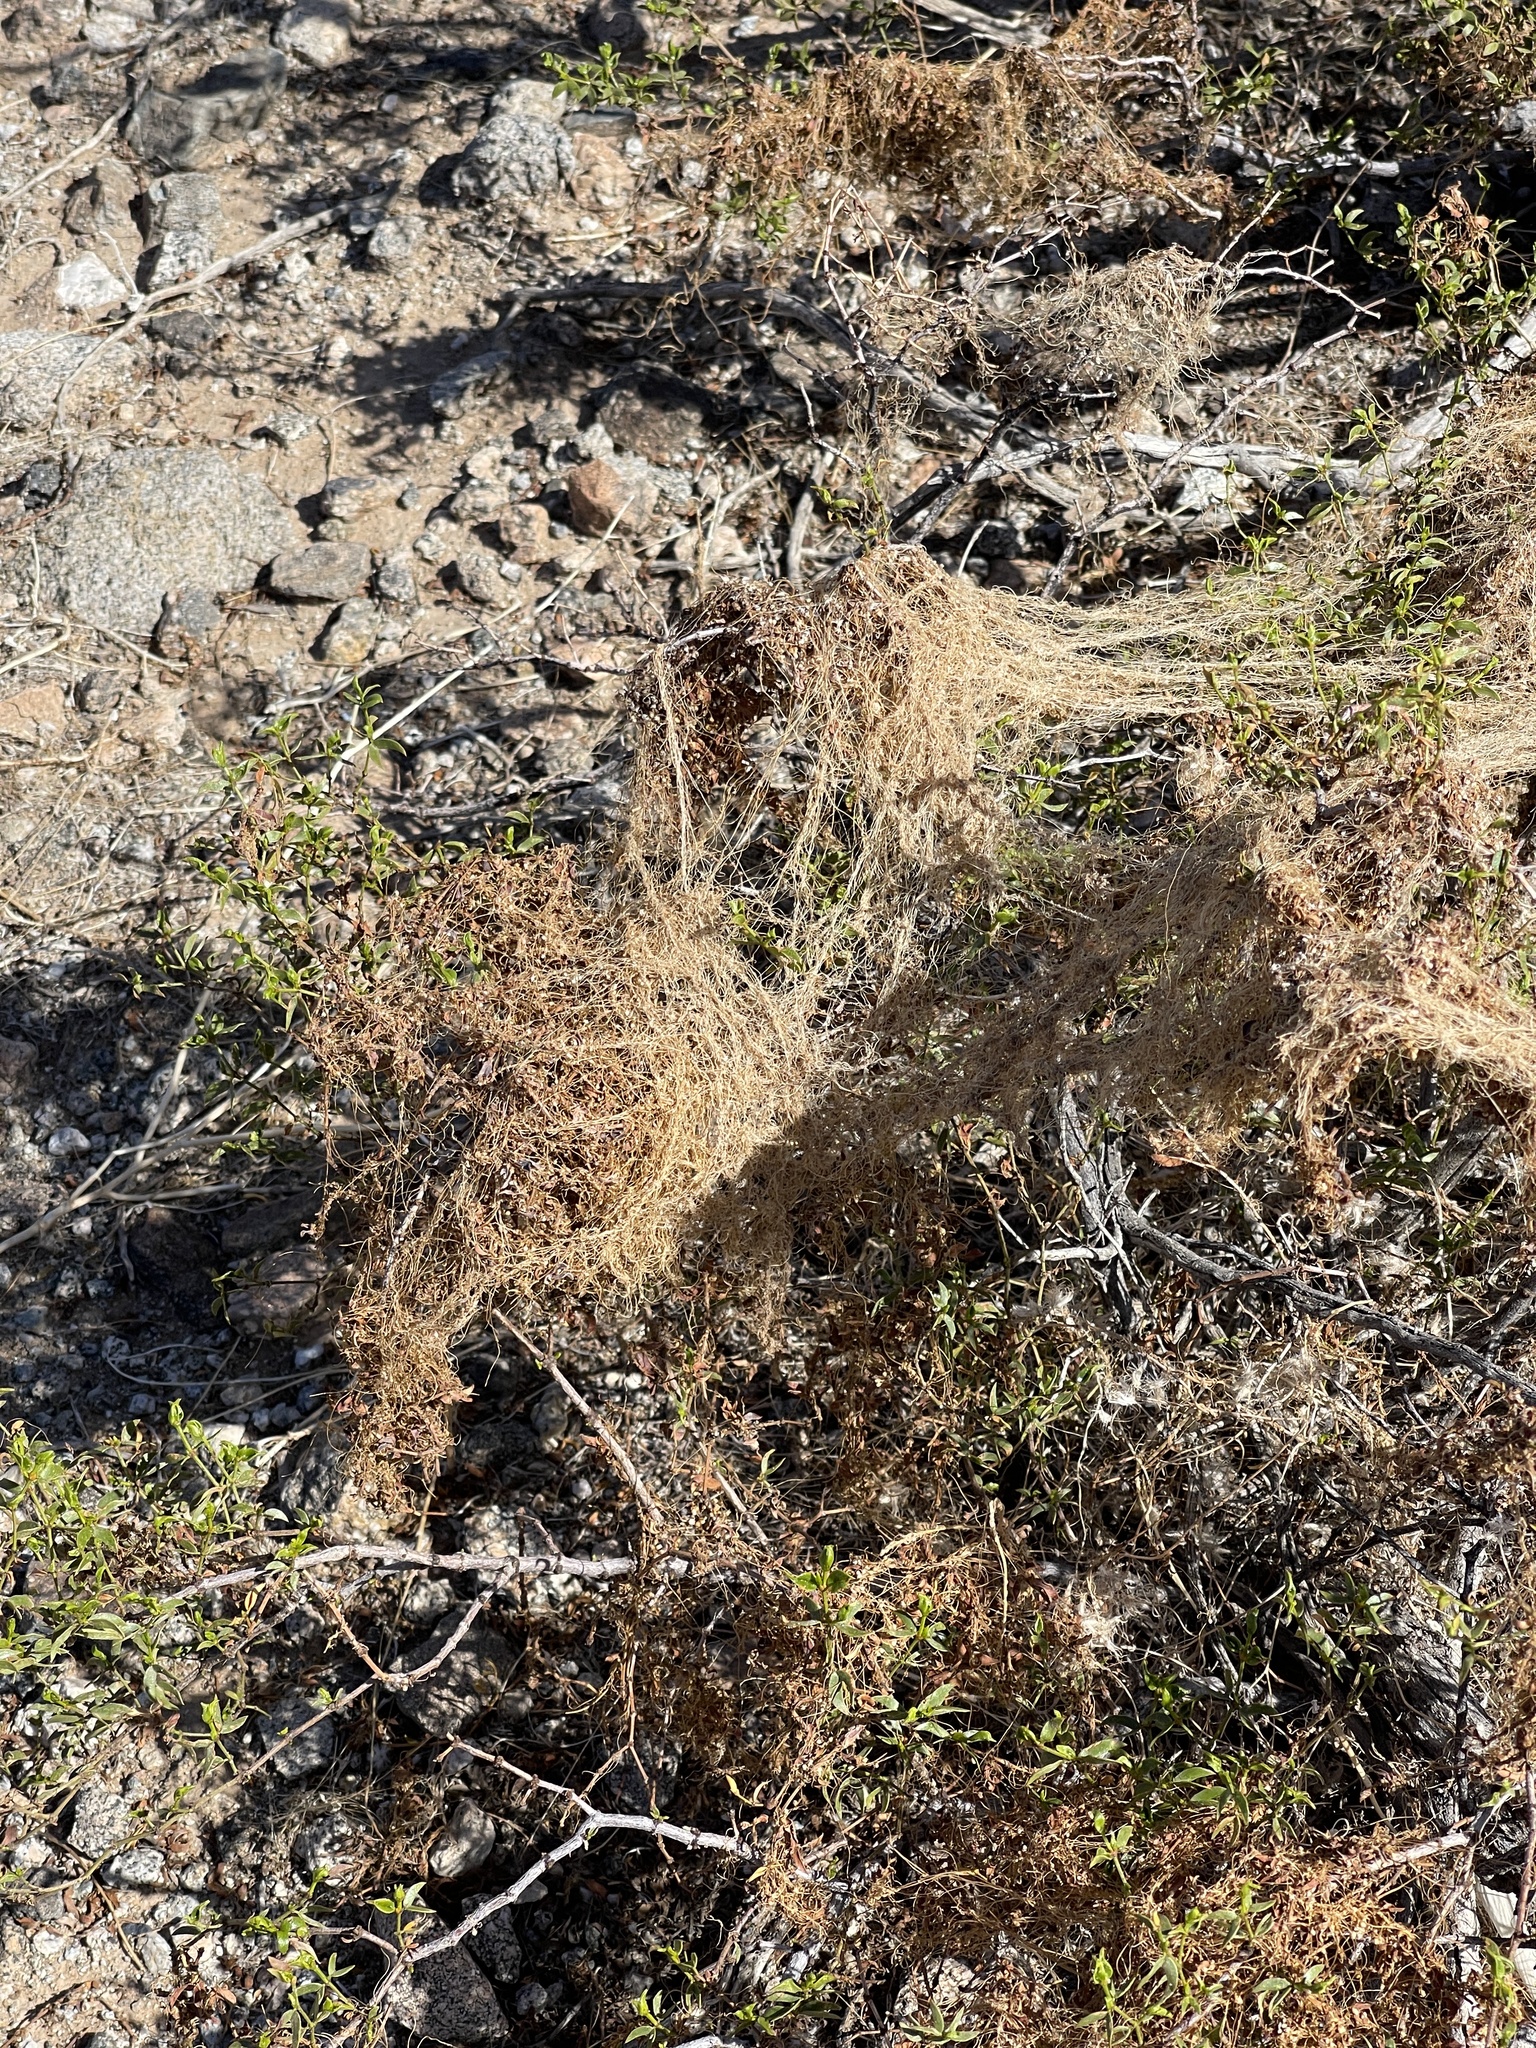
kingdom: Plantae
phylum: Tracheophyta
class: Magnoliopsida
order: Solanales
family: Convolvulaceae
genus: Cuscuta
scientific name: Cuscuta californica
